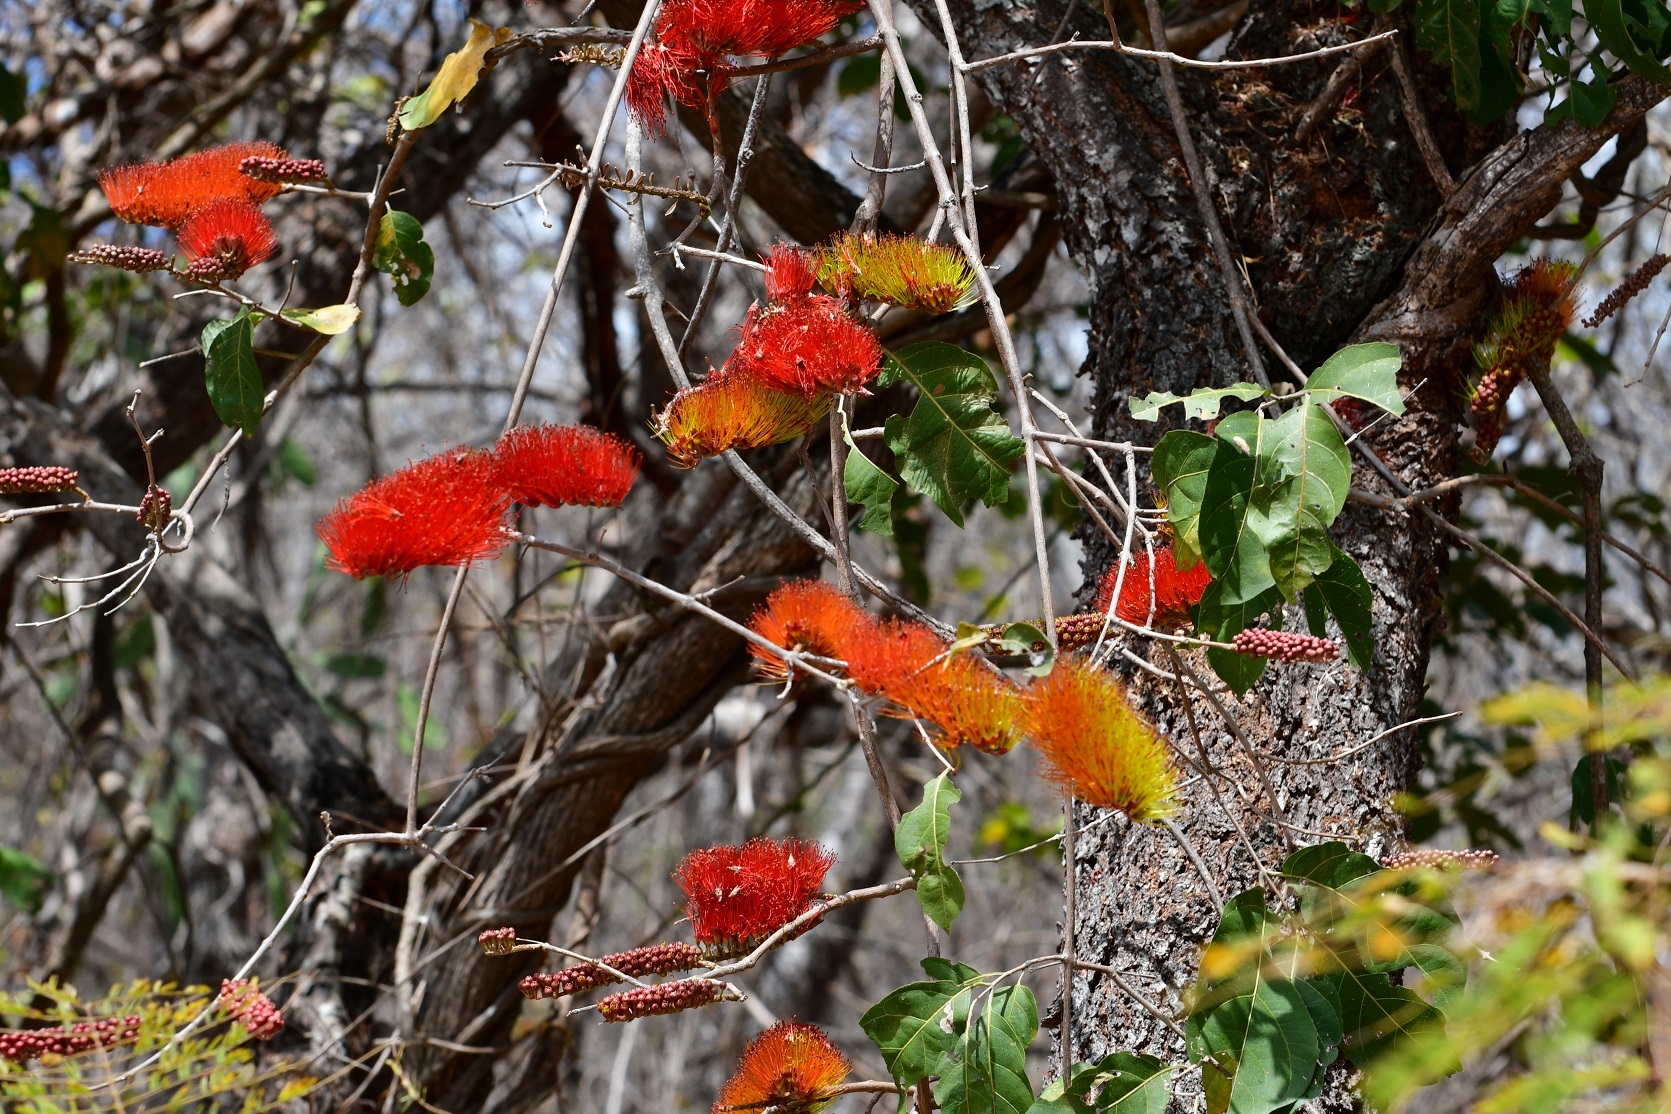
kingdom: Plantae
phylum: Tracheophyta
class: Magnoliopsida
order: Myrtales
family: Combretaceae
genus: Combretum
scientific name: Combretum farinosum
